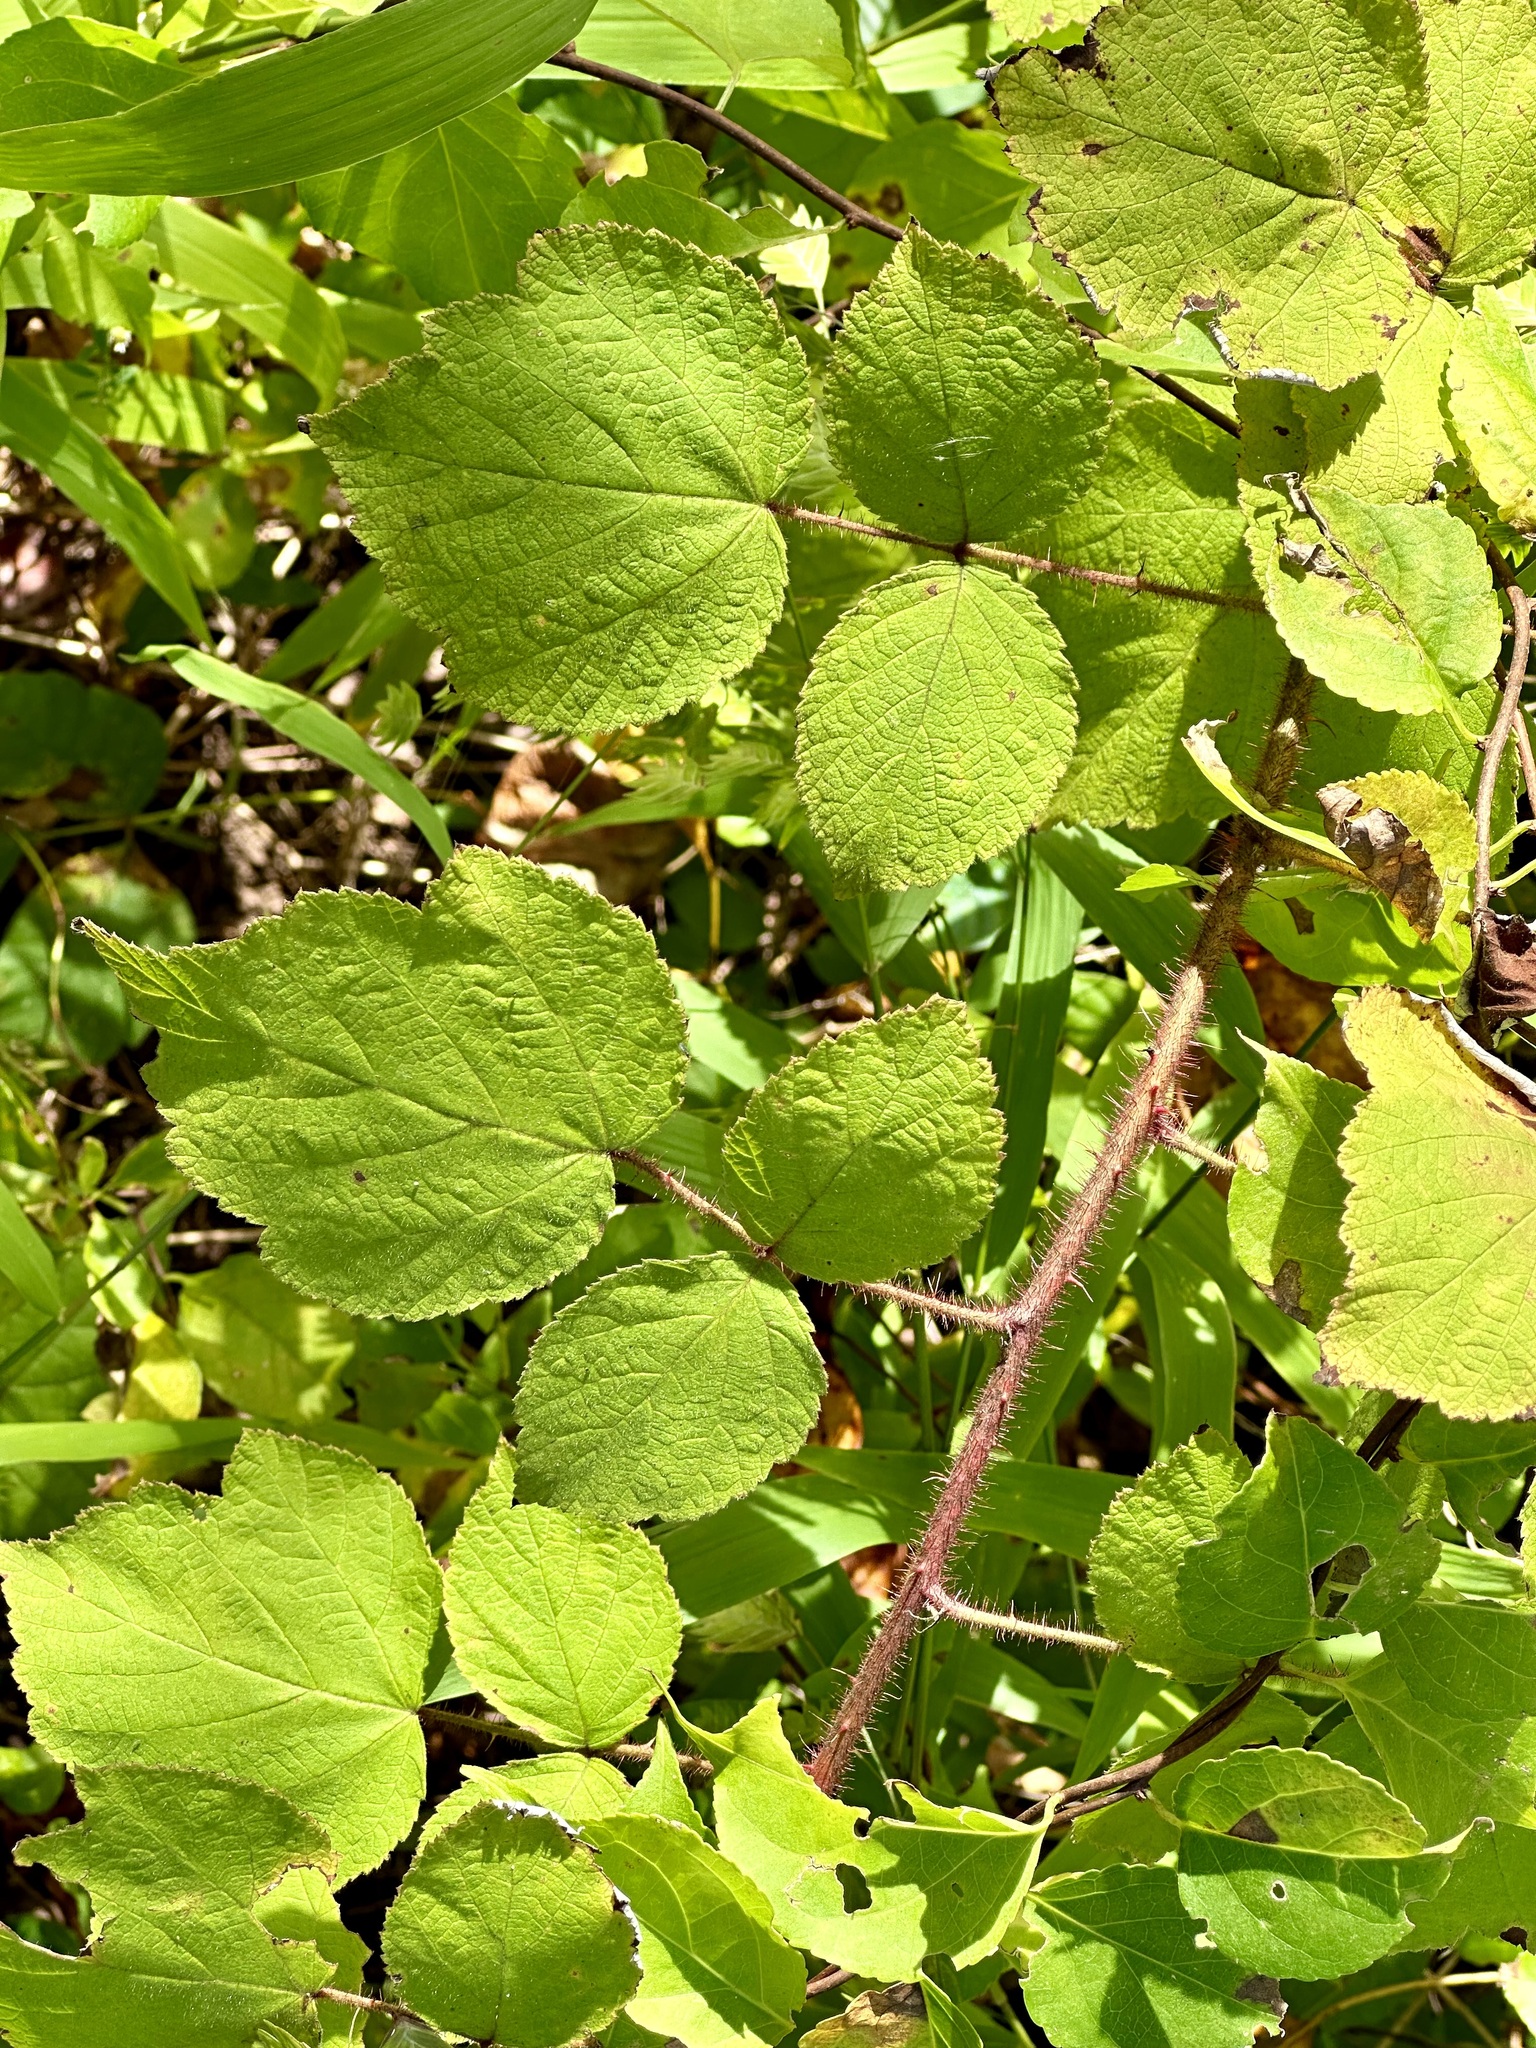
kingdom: Plantae
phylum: Tracheophyta
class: Magnoliopsida
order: Rosales
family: Rosaceae
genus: Rubus
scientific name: Rubus phoenicolasius
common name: Japanese wineberry
